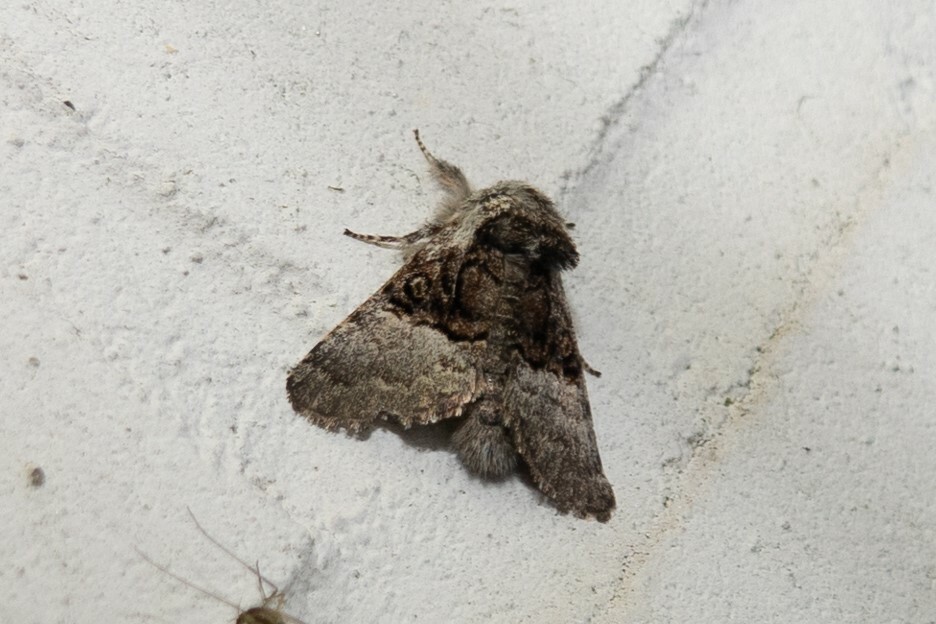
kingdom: Animalia
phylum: Arthropoda
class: Insecta
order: Lepidoptera
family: Noctuidae
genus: Colocasia
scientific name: Colocasia coryli
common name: Nut-tree tussock
